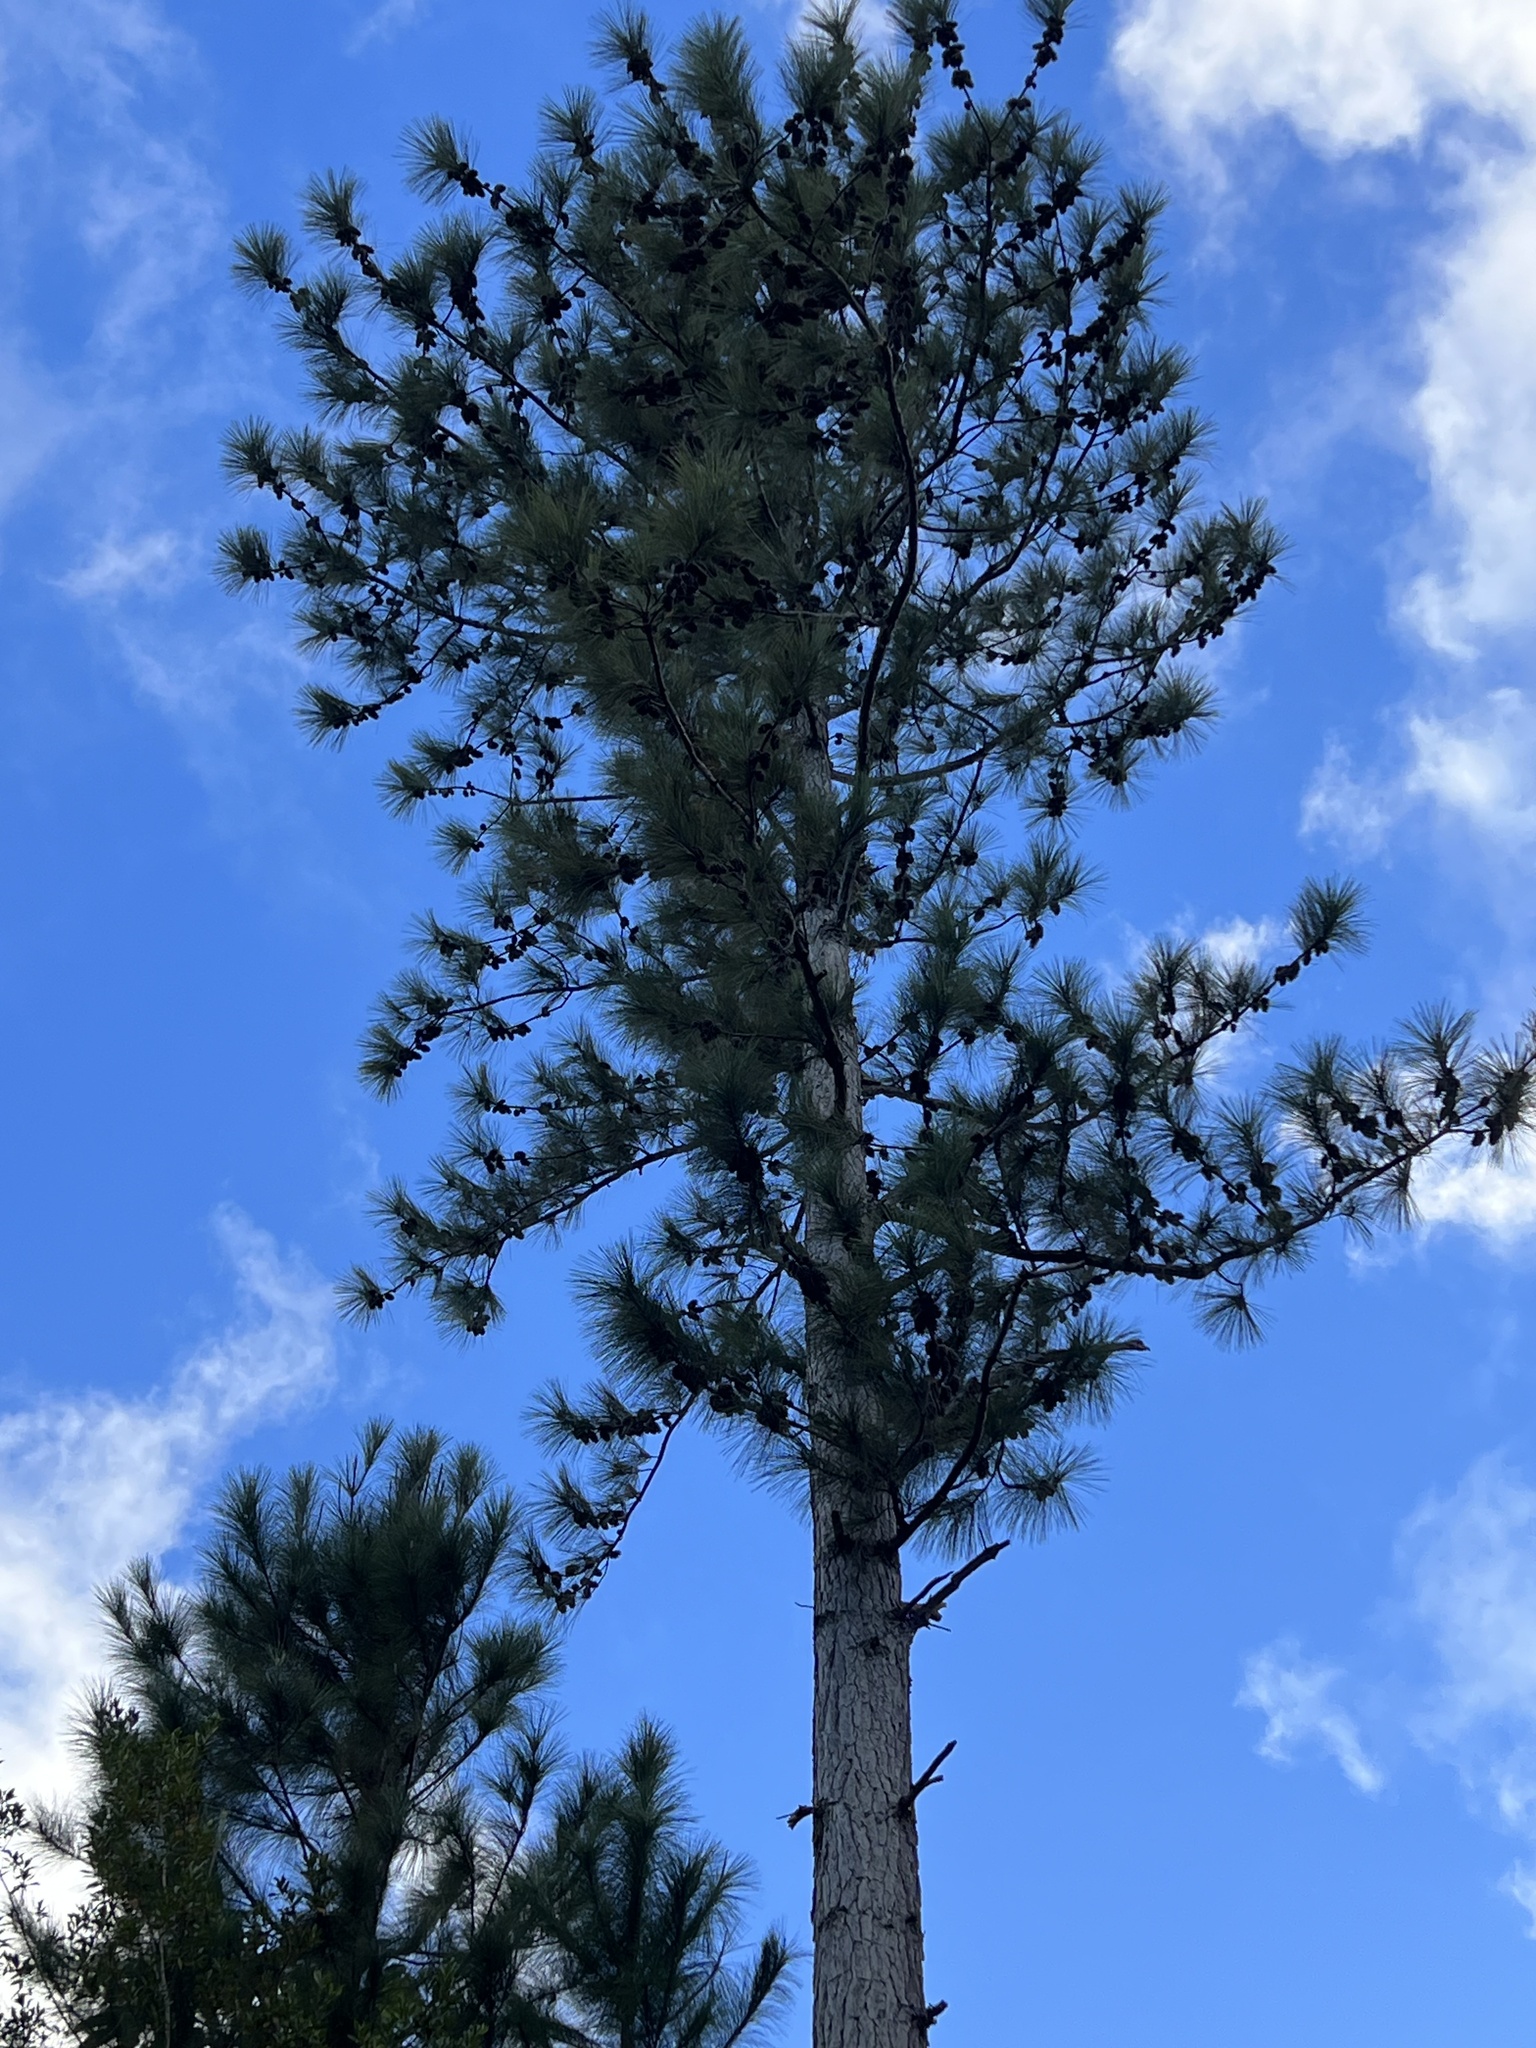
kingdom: Plantae
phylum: Tracheophyta
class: Pinopsida
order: Pinales
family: Pinaceae
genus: Pinus
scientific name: Pinus caribaea
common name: Caribbean pine
